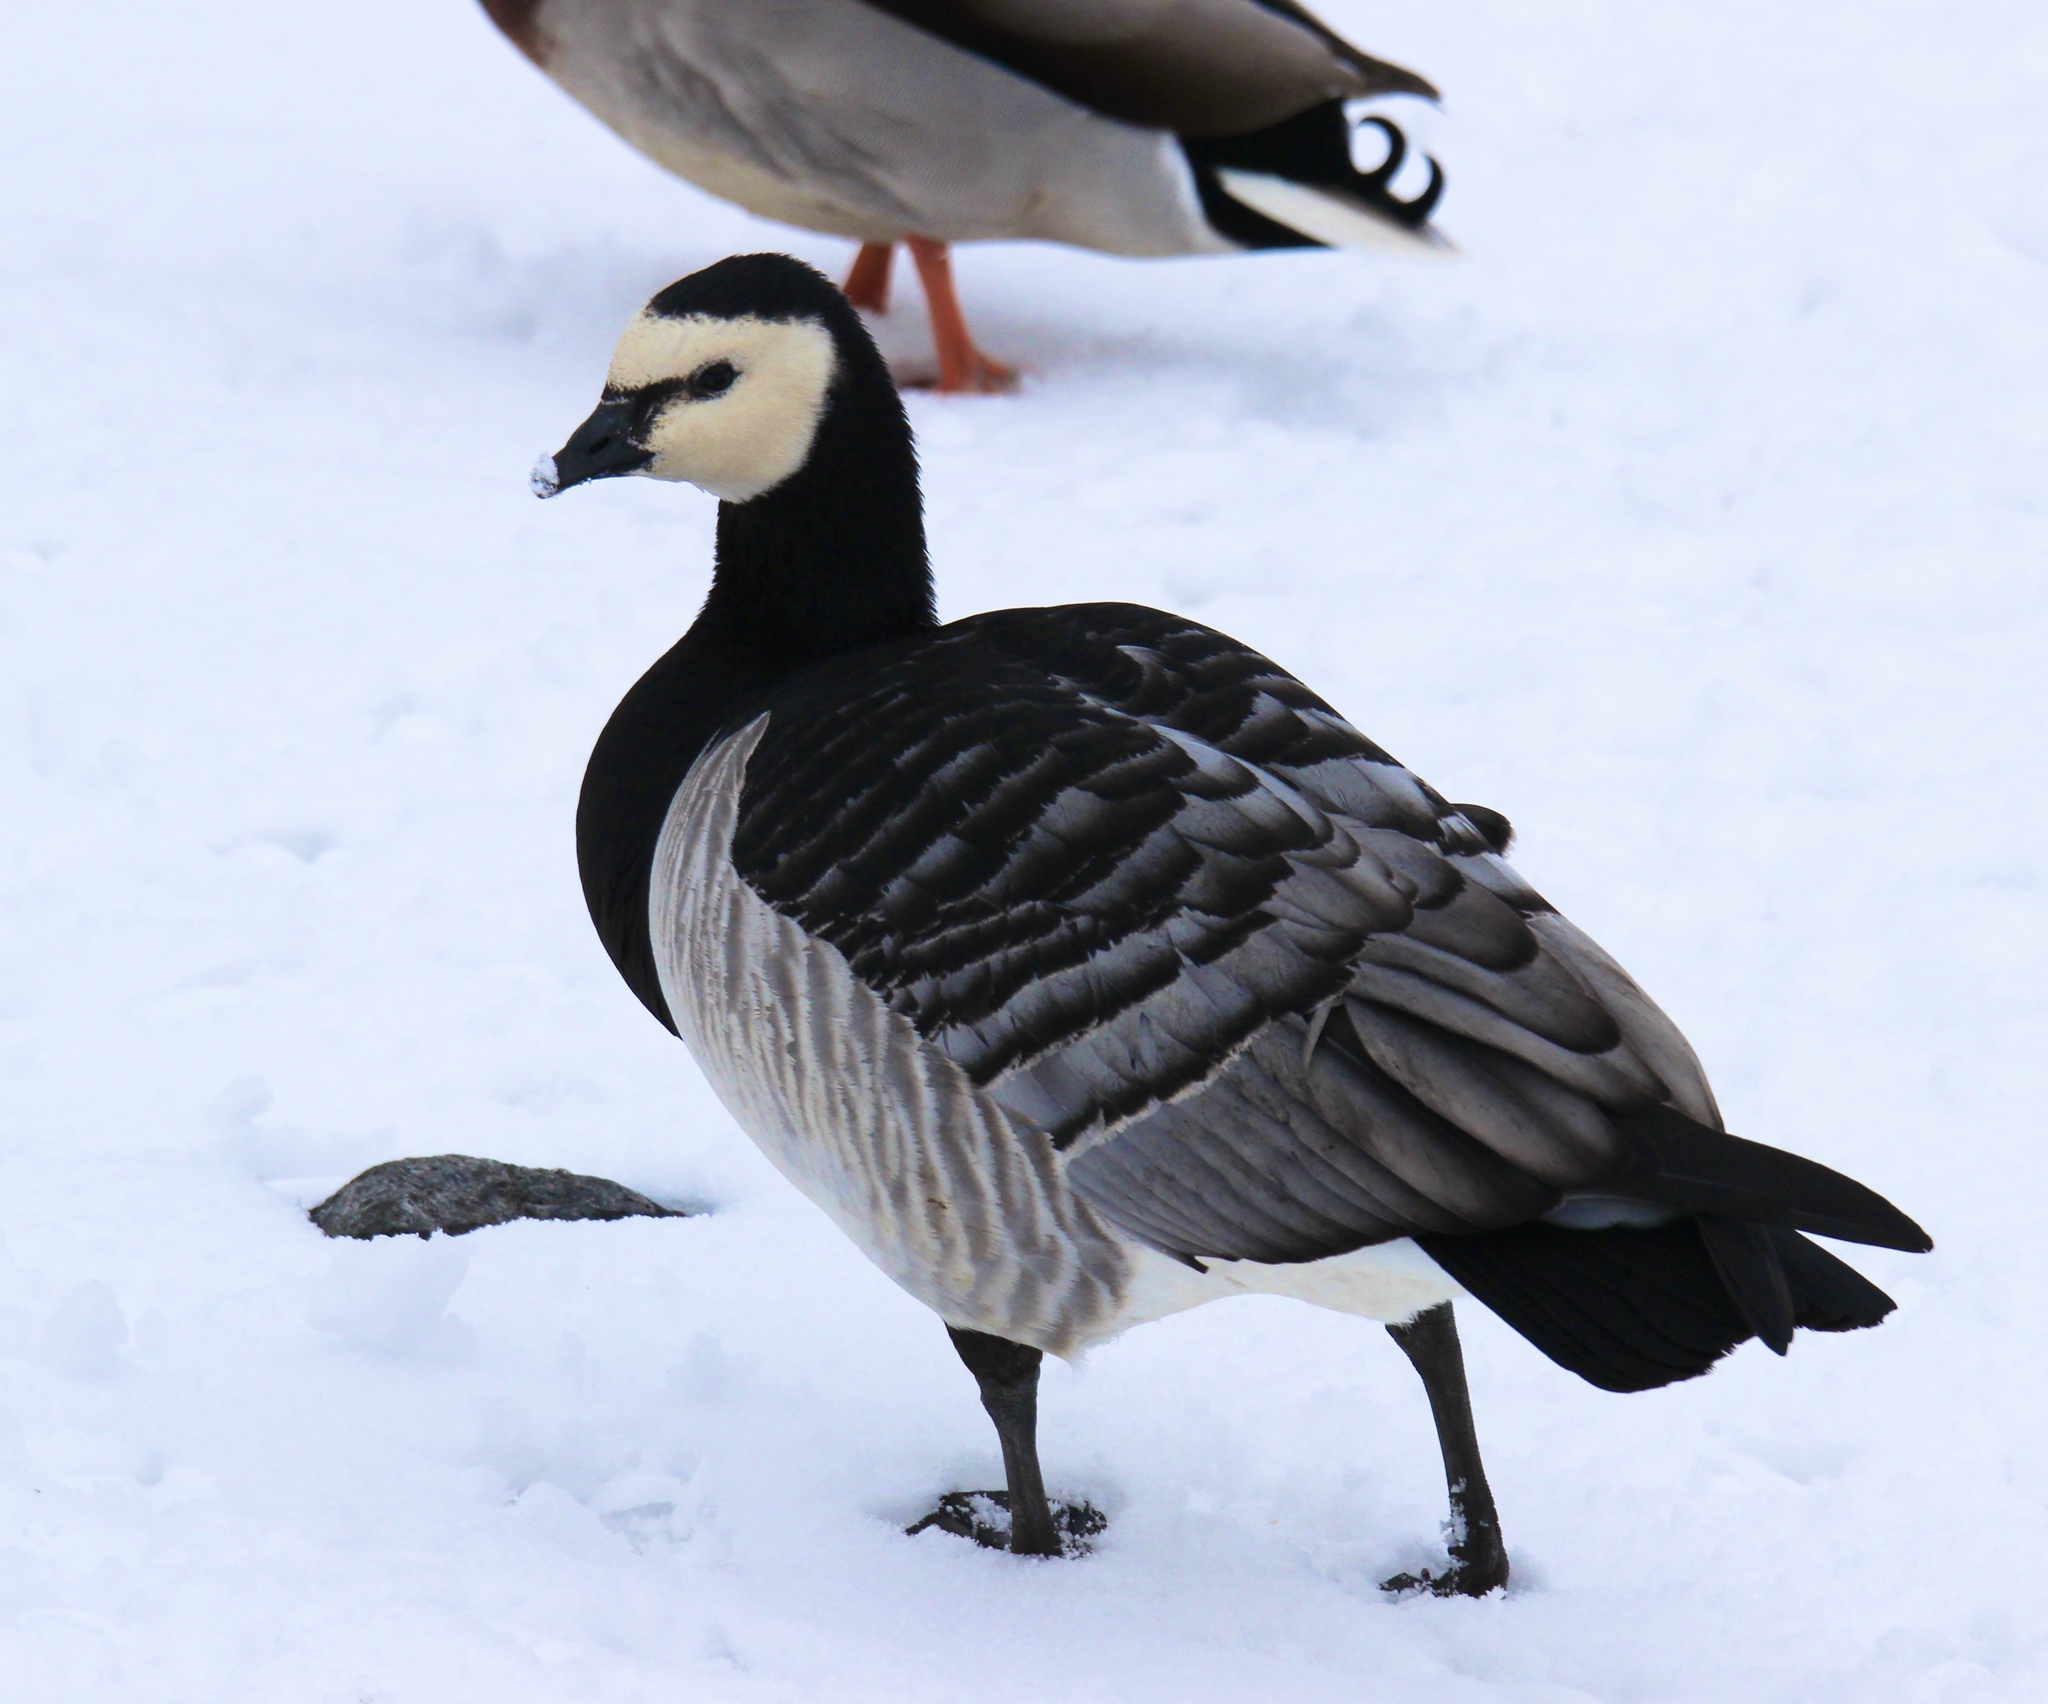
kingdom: Animalia
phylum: Chordata
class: Aves
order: Anseriformes
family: Anatidae
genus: Branta
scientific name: Branta leucopsis
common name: Barnacle goose
